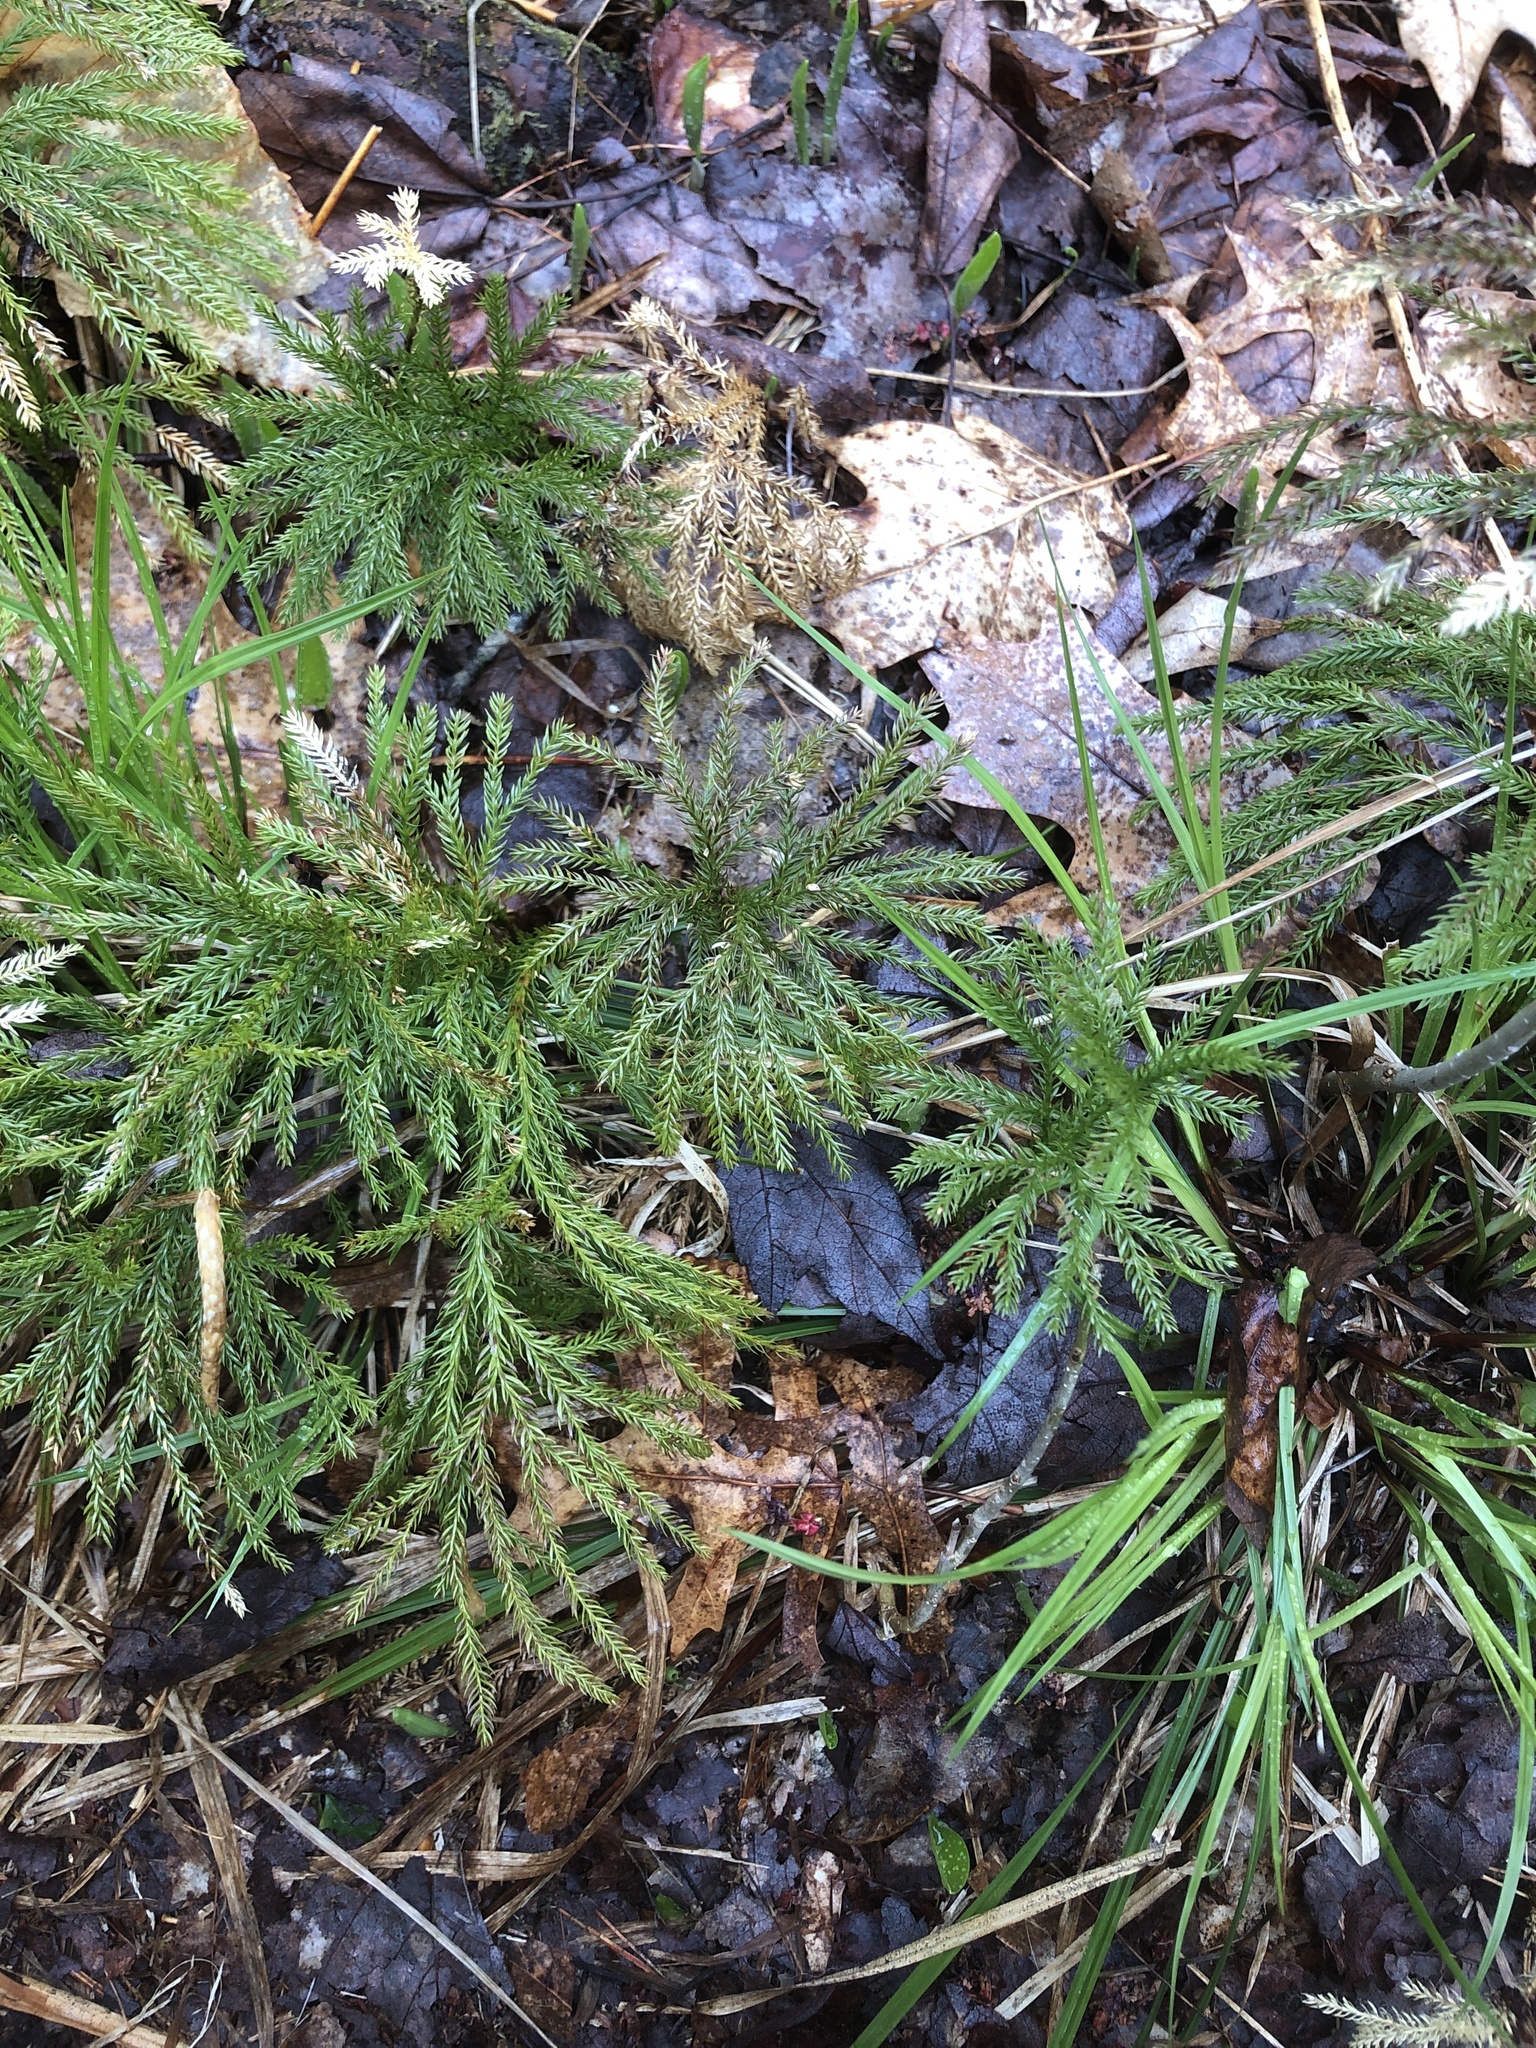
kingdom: Plantae
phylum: Tracheophyta
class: Lycopodiopsida
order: Lycopodiales
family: Lycopodiaceae
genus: Dendrolycopodium
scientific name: Dendrolycopodium obscurum
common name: Common ground-pine
